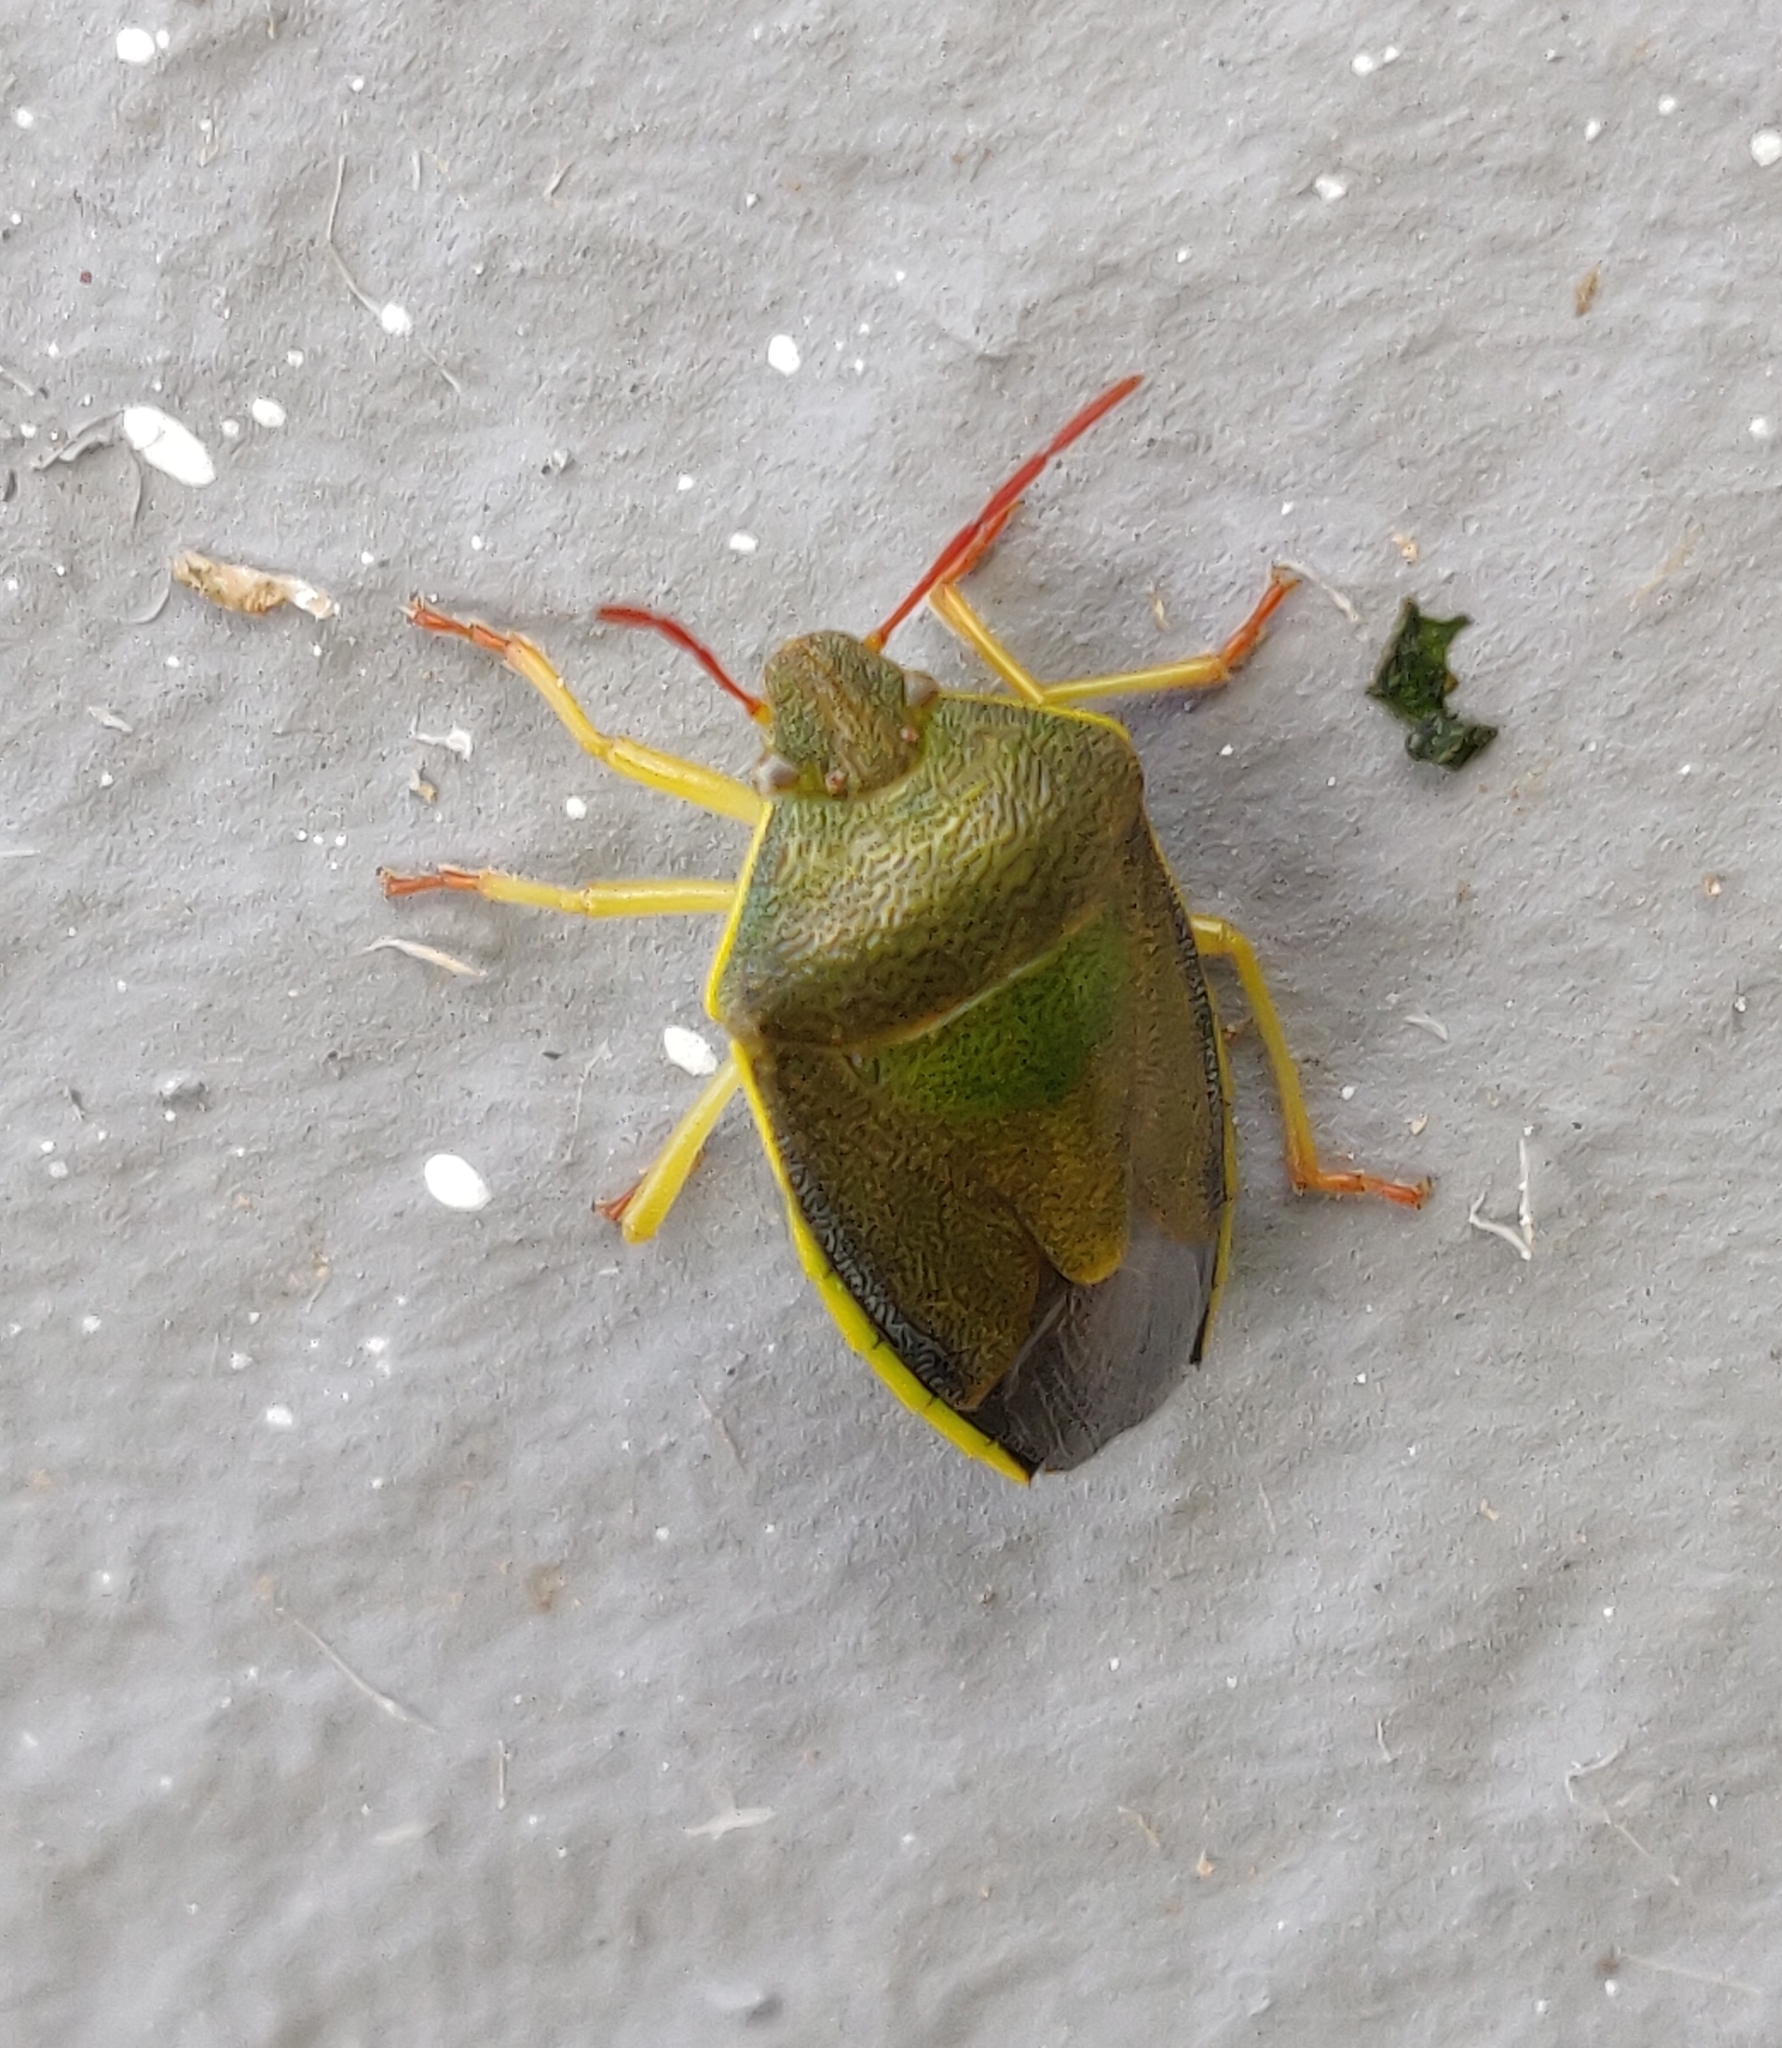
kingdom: Animalia
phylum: Arthropoda
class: Insecta
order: Hemiptera
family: Pentatomidae
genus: Piezodorus
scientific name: Piezodorus lituratus
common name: Stink bug
